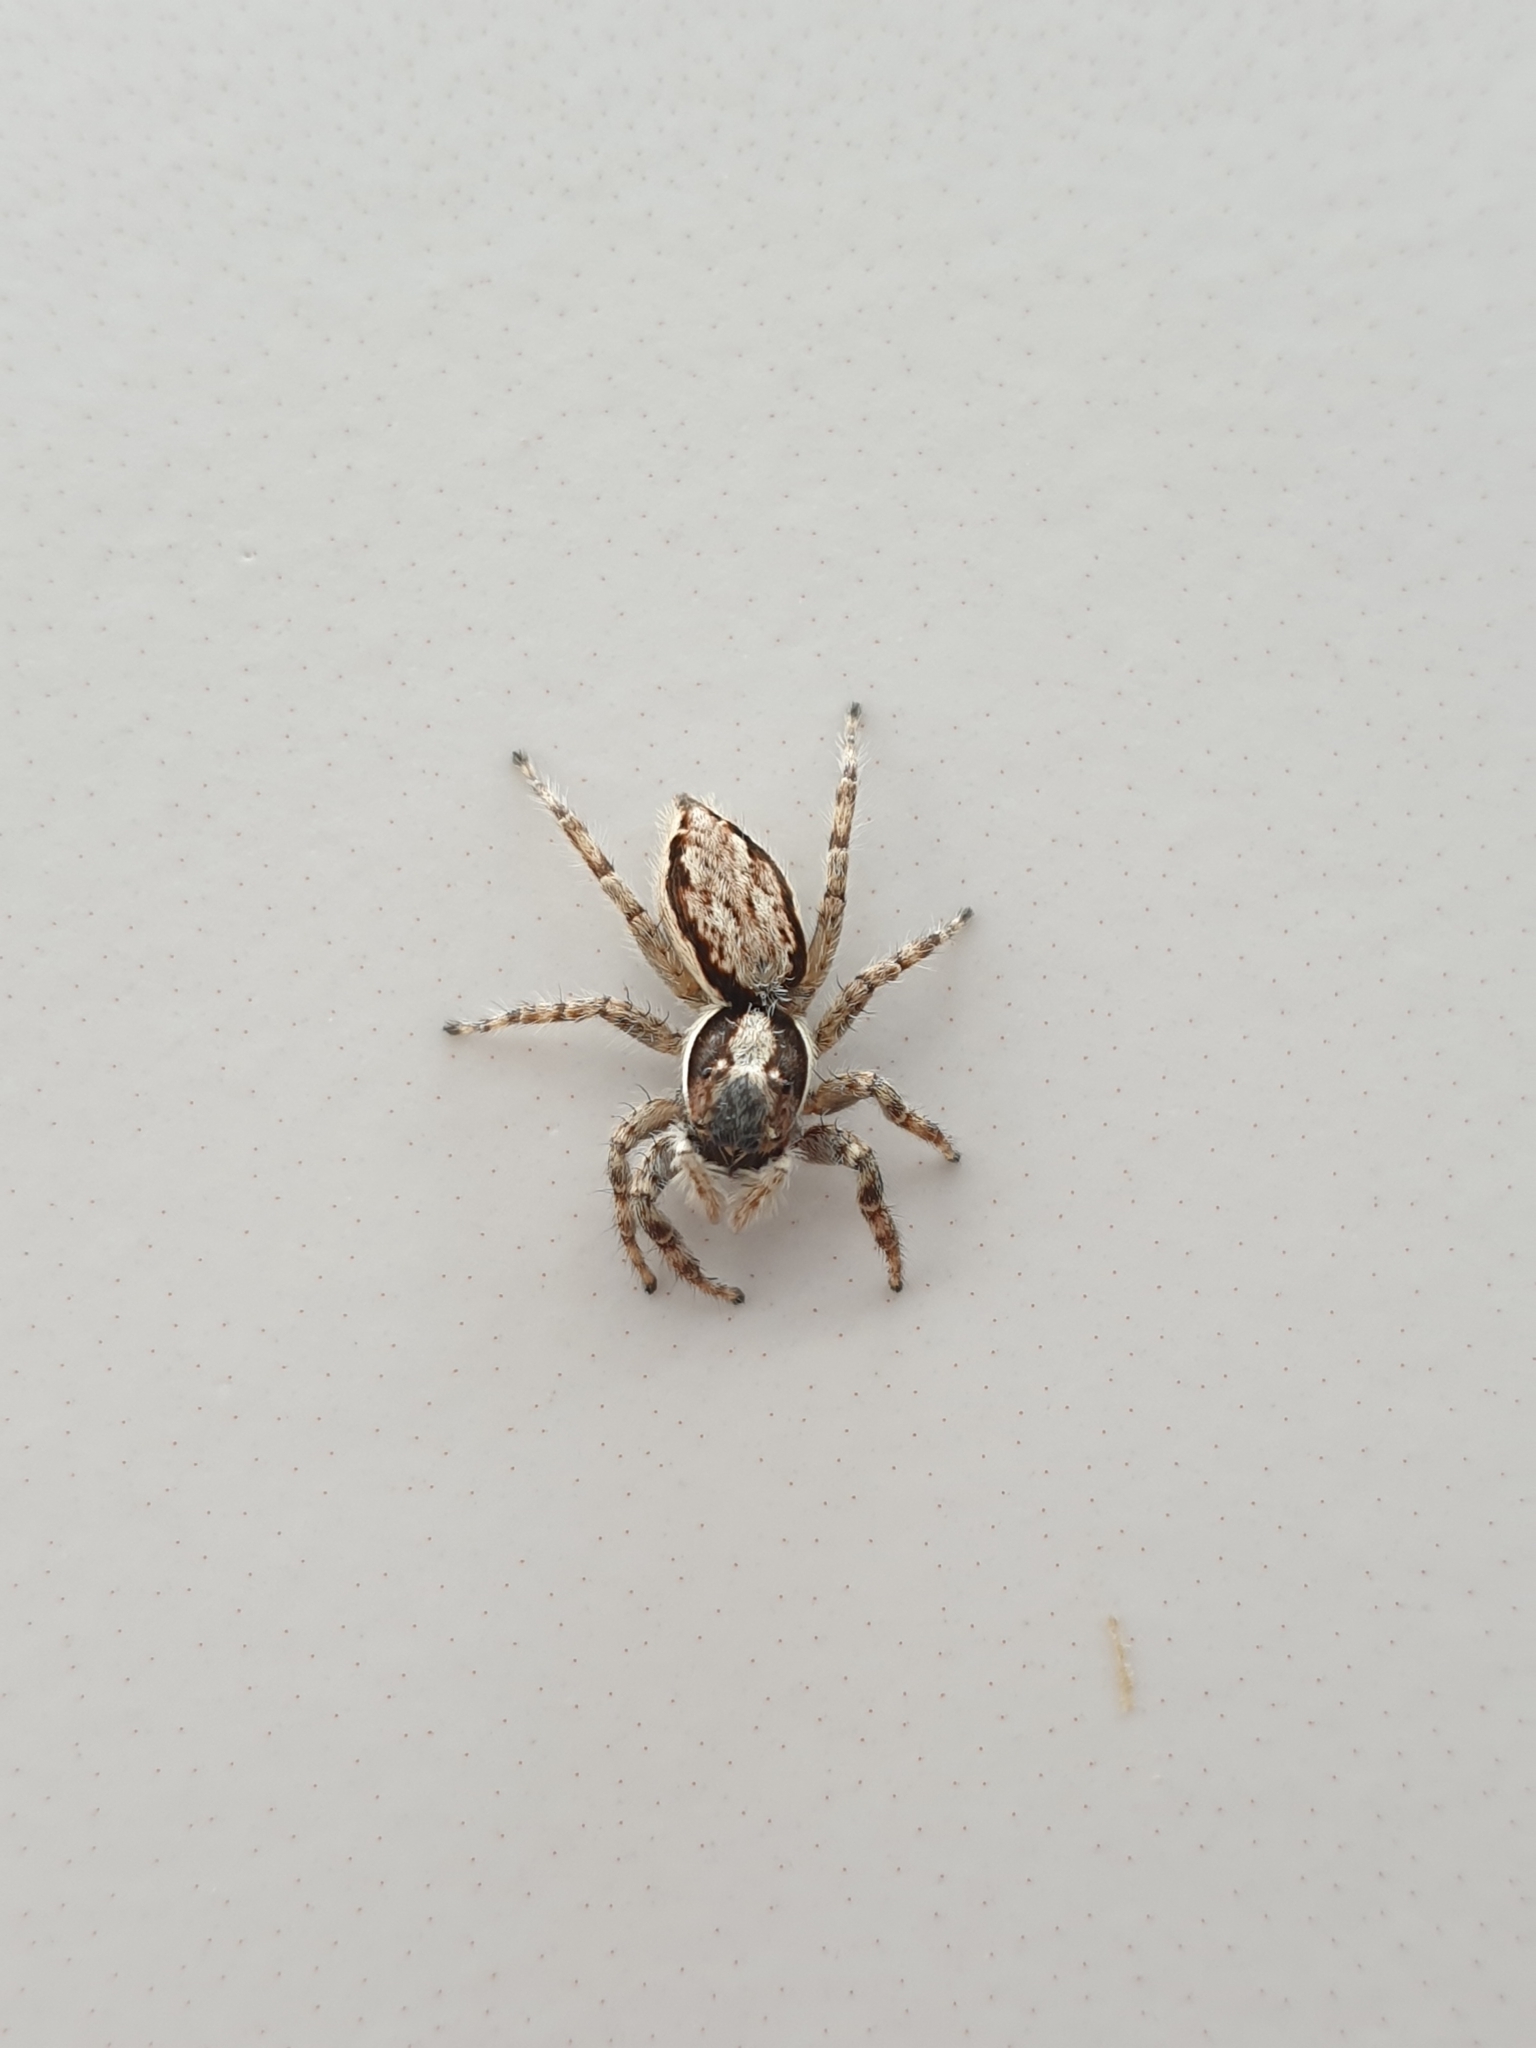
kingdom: Animalia
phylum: Arthropoda
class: Arachnida
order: Araneae
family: Salticidae
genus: Menemerus
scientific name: Menemerus bivittatus
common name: Gray wall jumper
